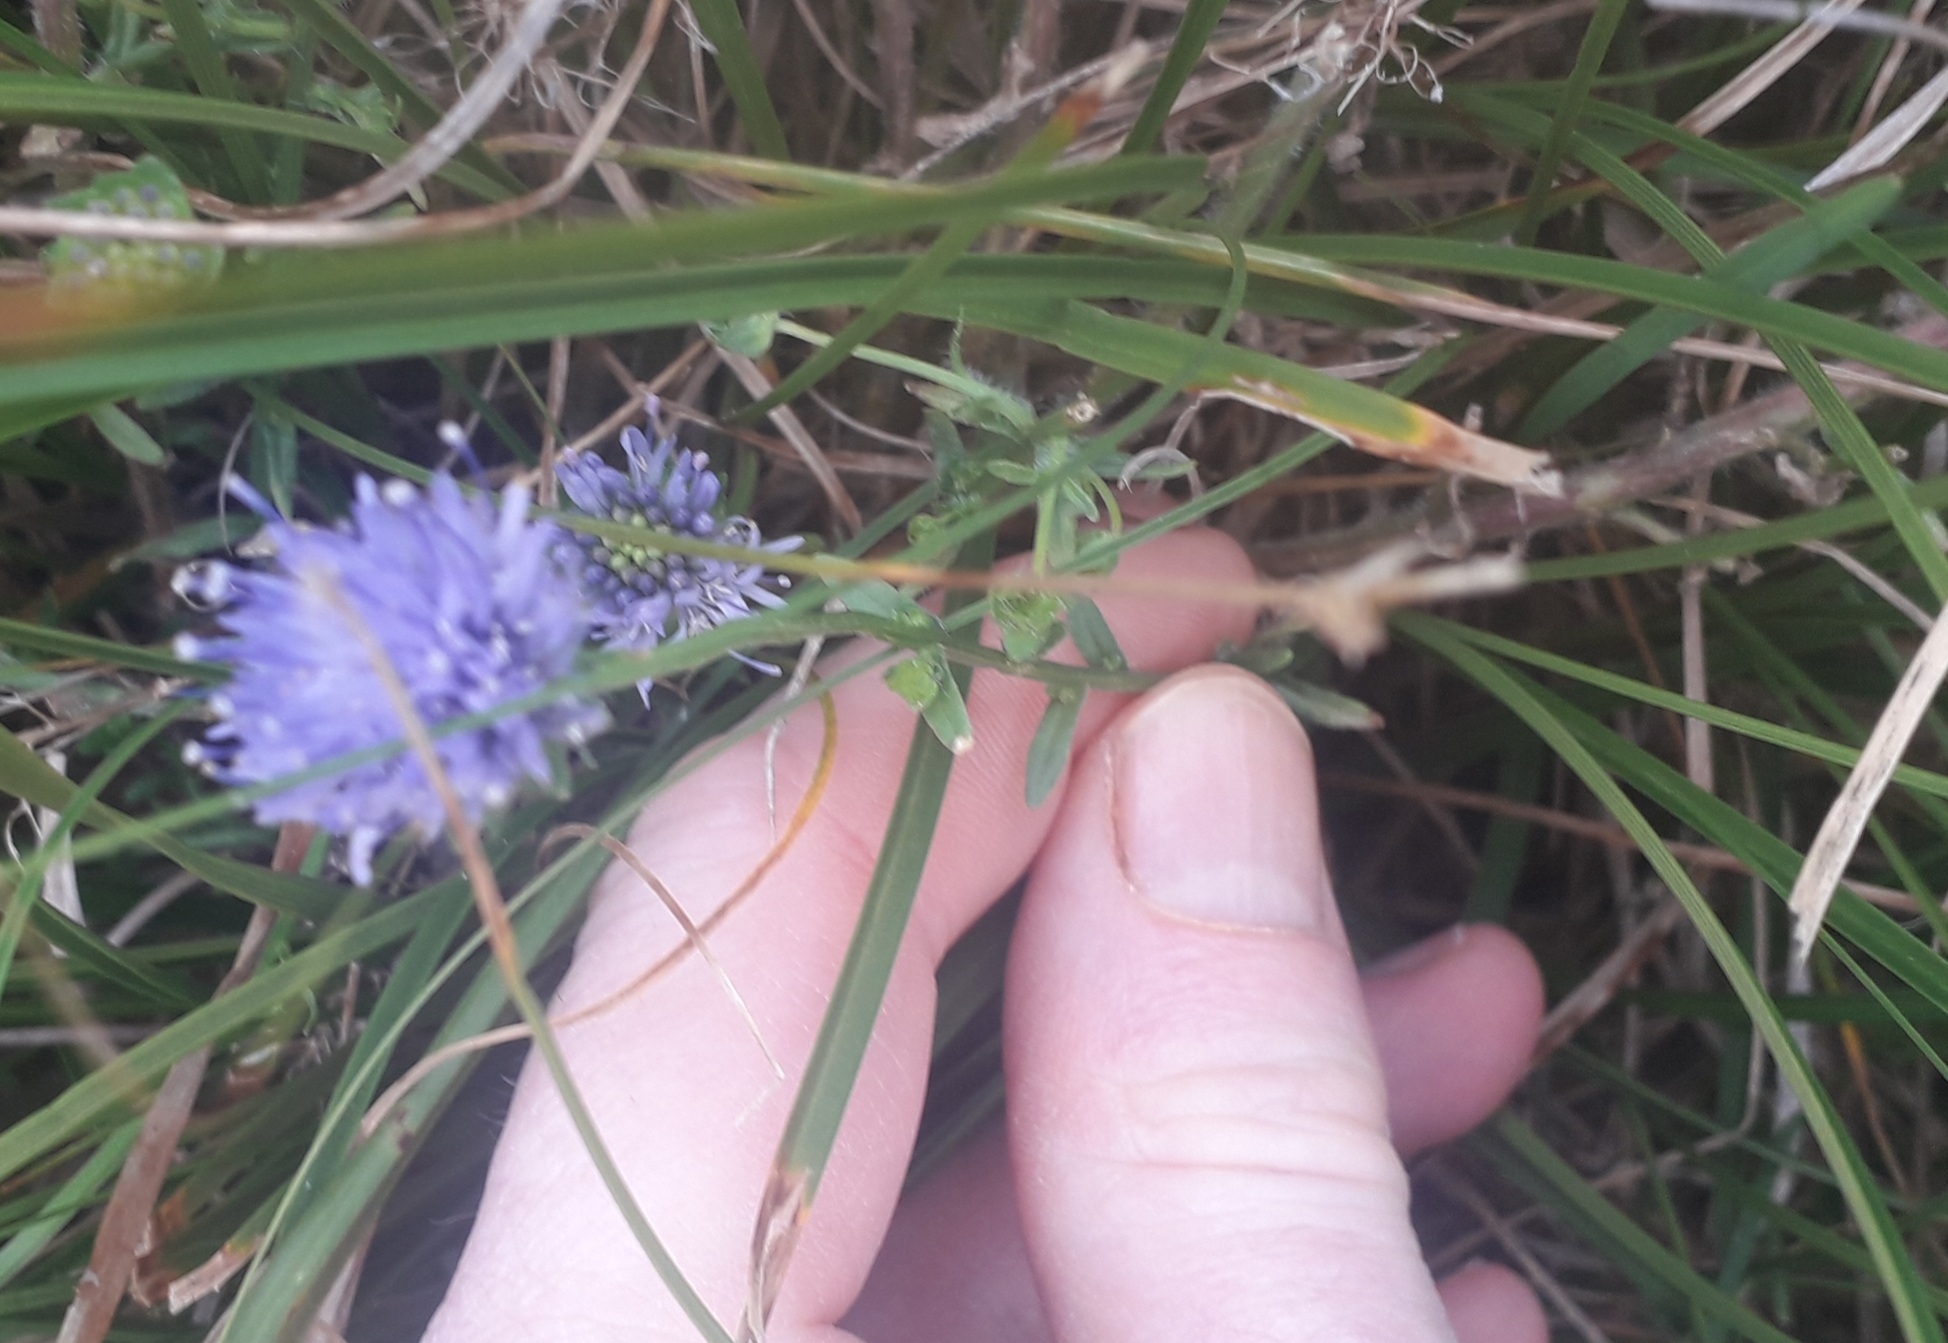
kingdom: Plantae
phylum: Tracheophyta
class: Magnoliopsida
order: Asterales
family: Campanulaceae
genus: Jasione
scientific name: Jasione montana
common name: Sheep's-bit
